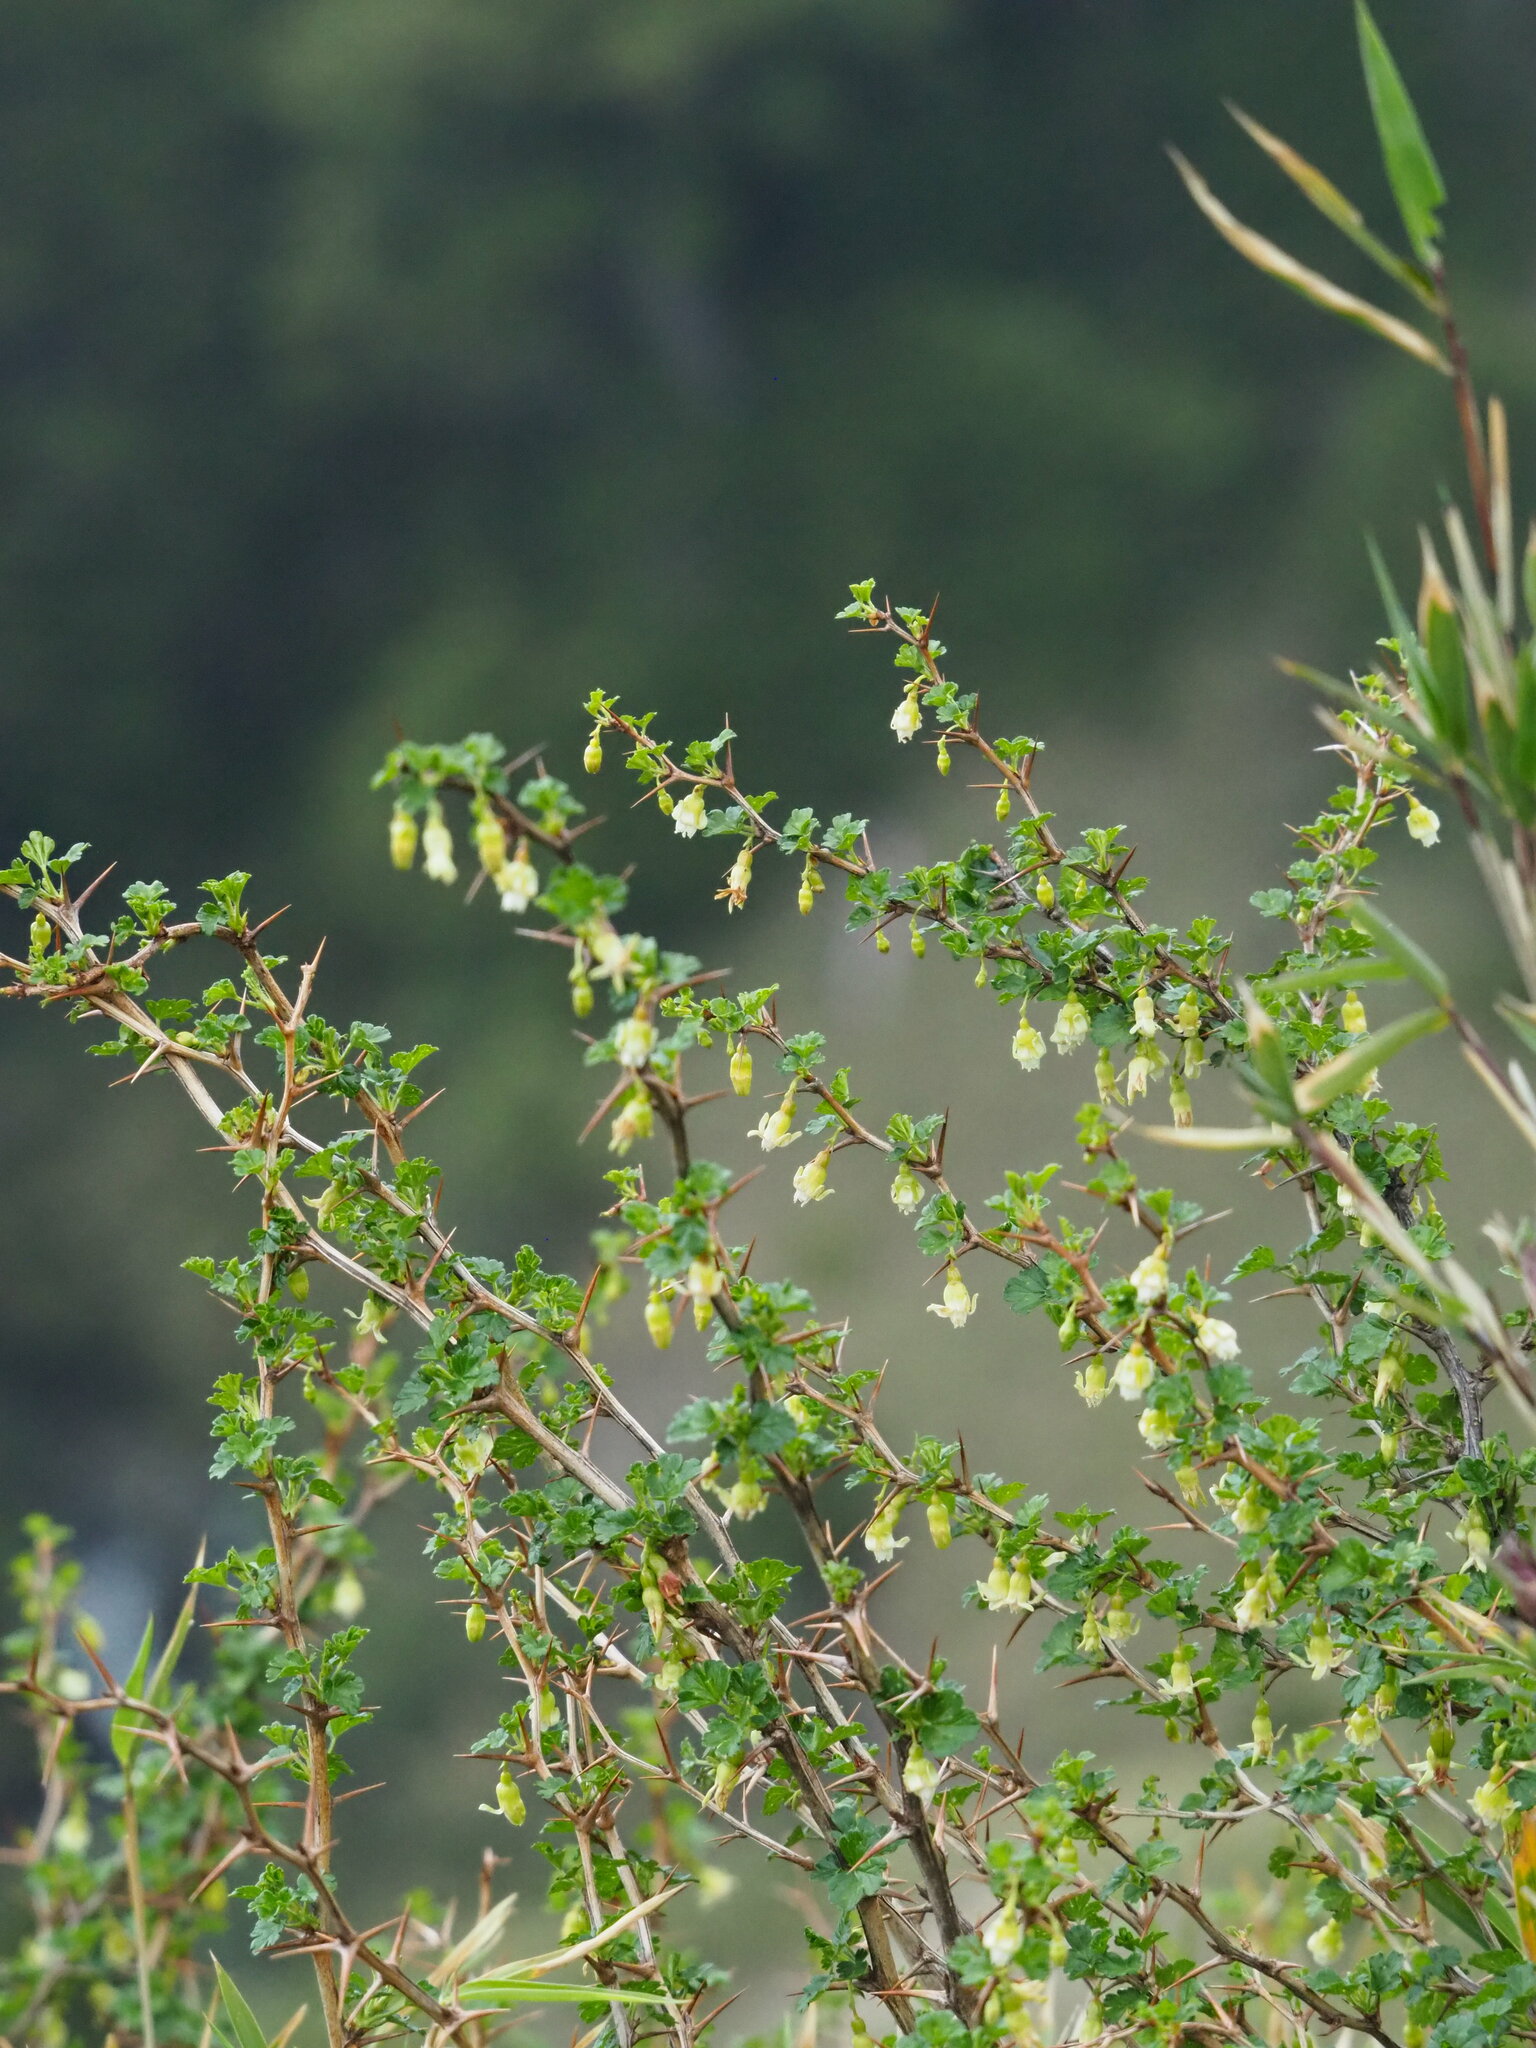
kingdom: Plantae
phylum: Tracheophyta
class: Magnoliopsida
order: Saxifragales
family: Grossulariaceae
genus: Ribes
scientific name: Ribes formosanum
